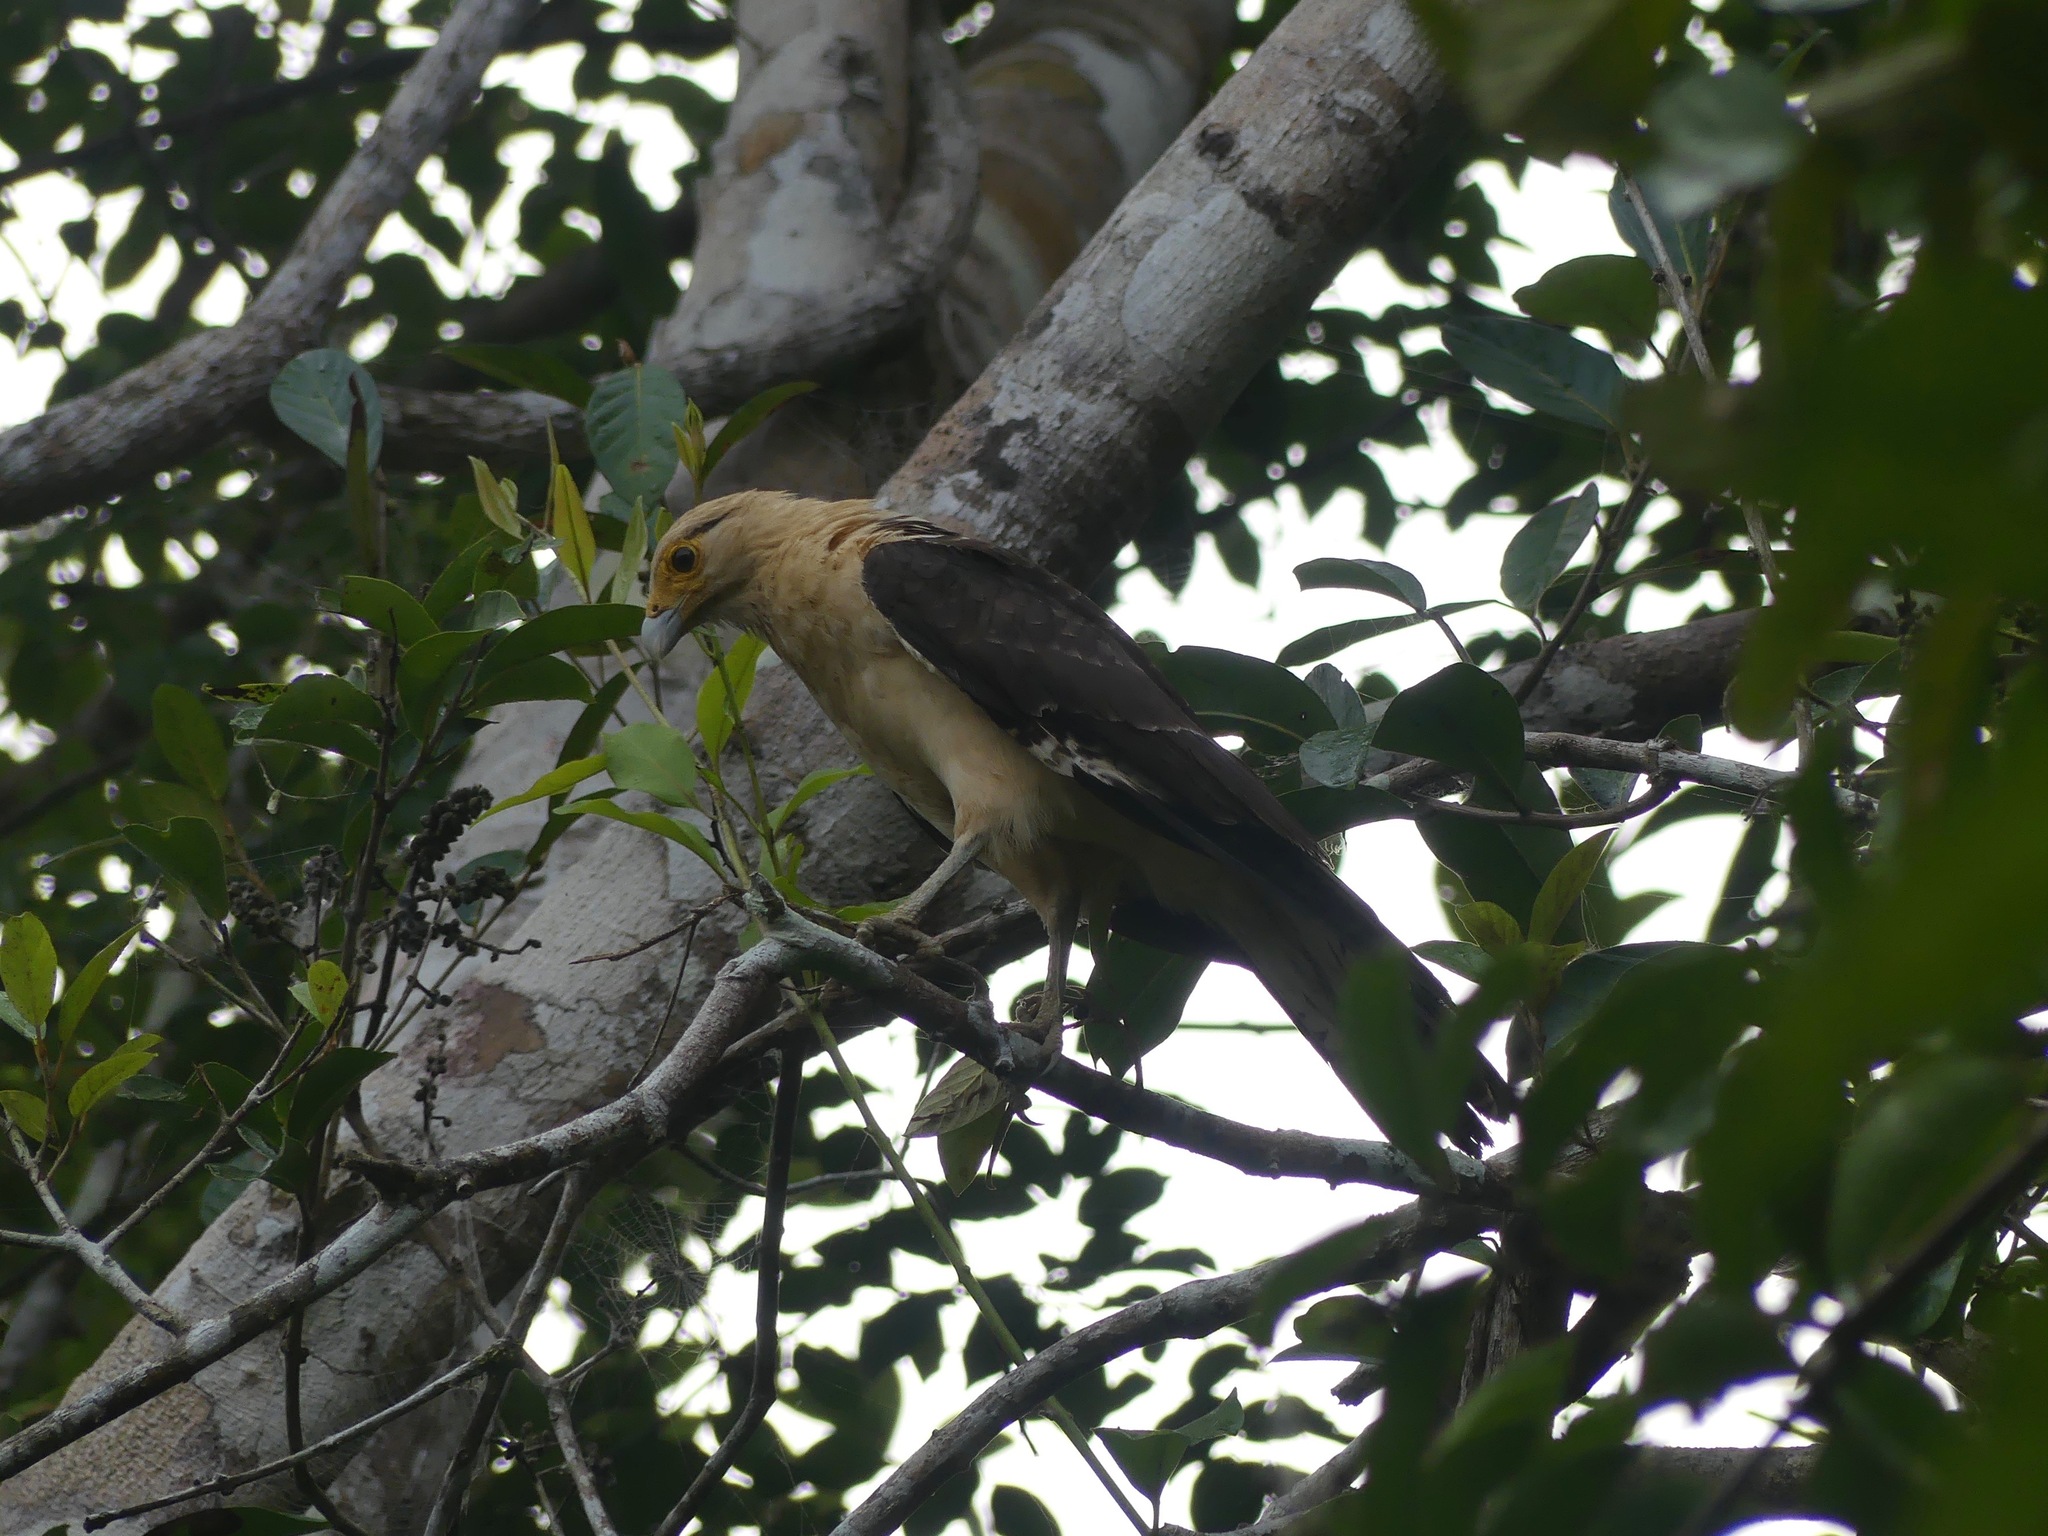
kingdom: Animalia
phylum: Chordata
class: Aves
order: Falconiformes
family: Falconidae
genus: Daptrius
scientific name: Daptrius
